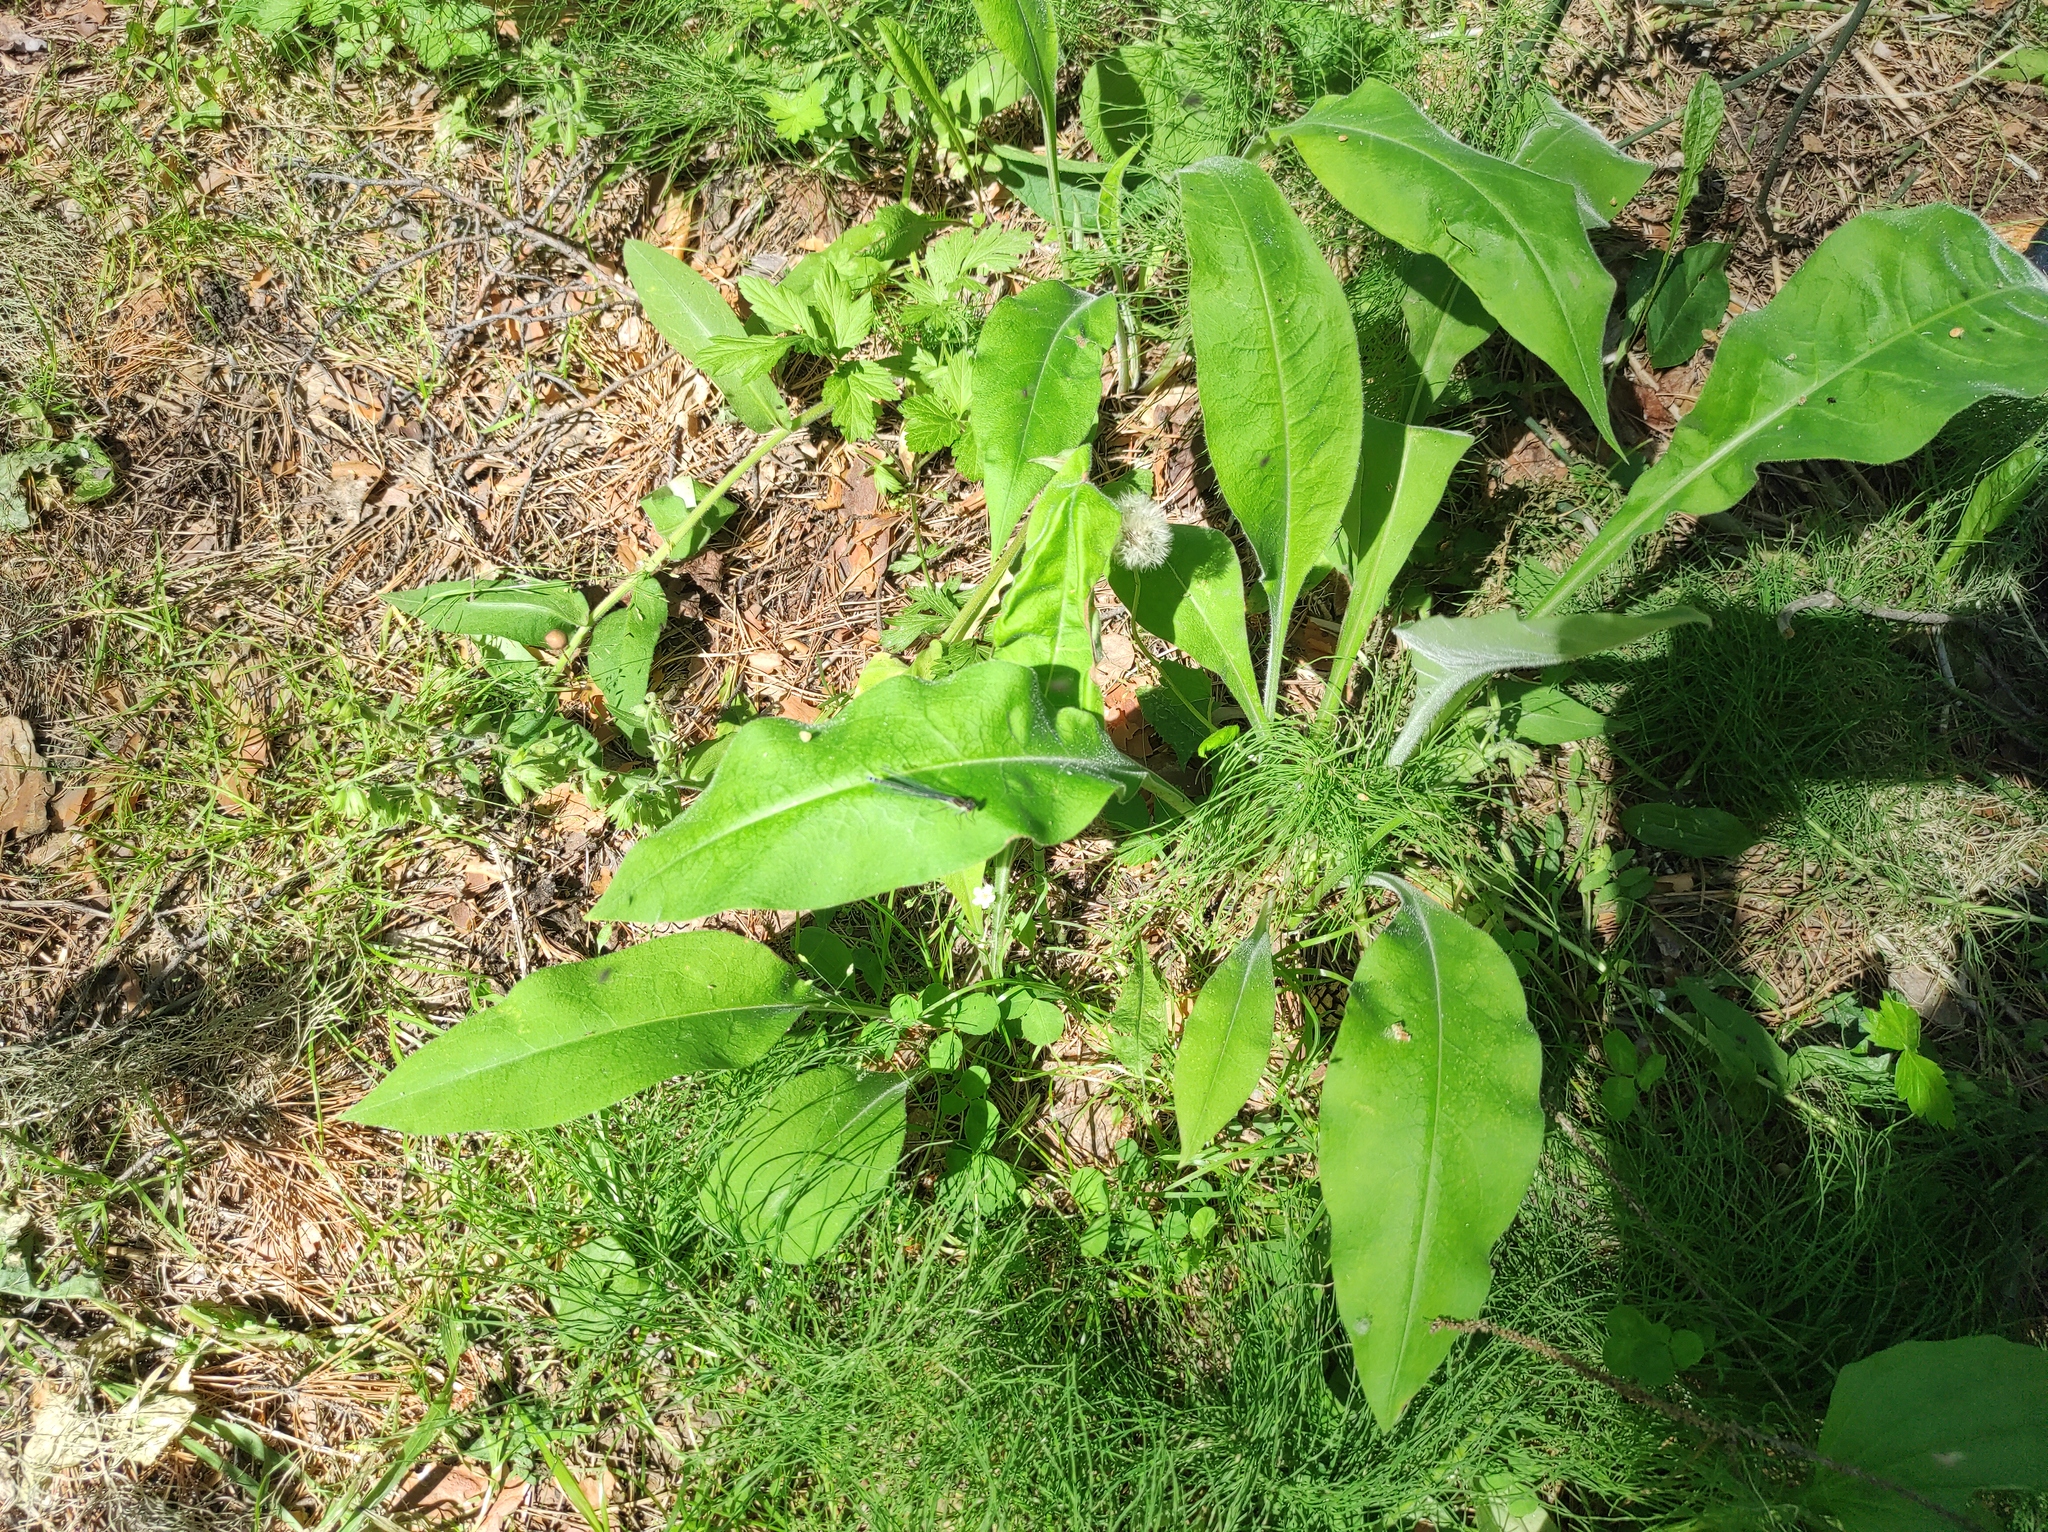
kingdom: Plantae
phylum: Tracheophyta
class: Magnoliopsida
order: Boraginales
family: Boraginaceae
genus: Pulmonaria
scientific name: Pulmonaria mollis
